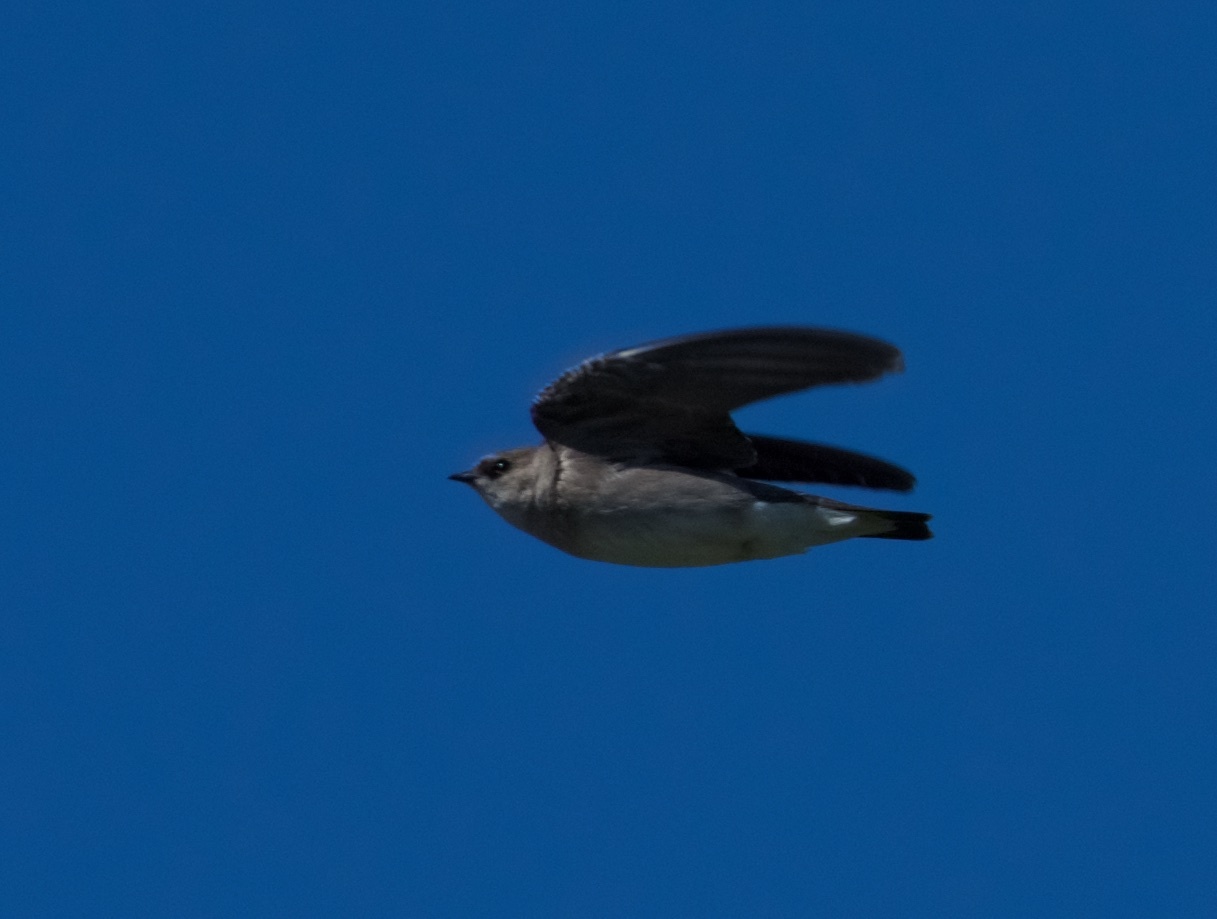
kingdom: Animalia
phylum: Chordata
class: Aves
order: Passeriformes
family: Hirundinidae
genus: Stelgidopteryx
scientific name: Stelgidopteryx serripennis
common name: Northern rough-winged swallow
